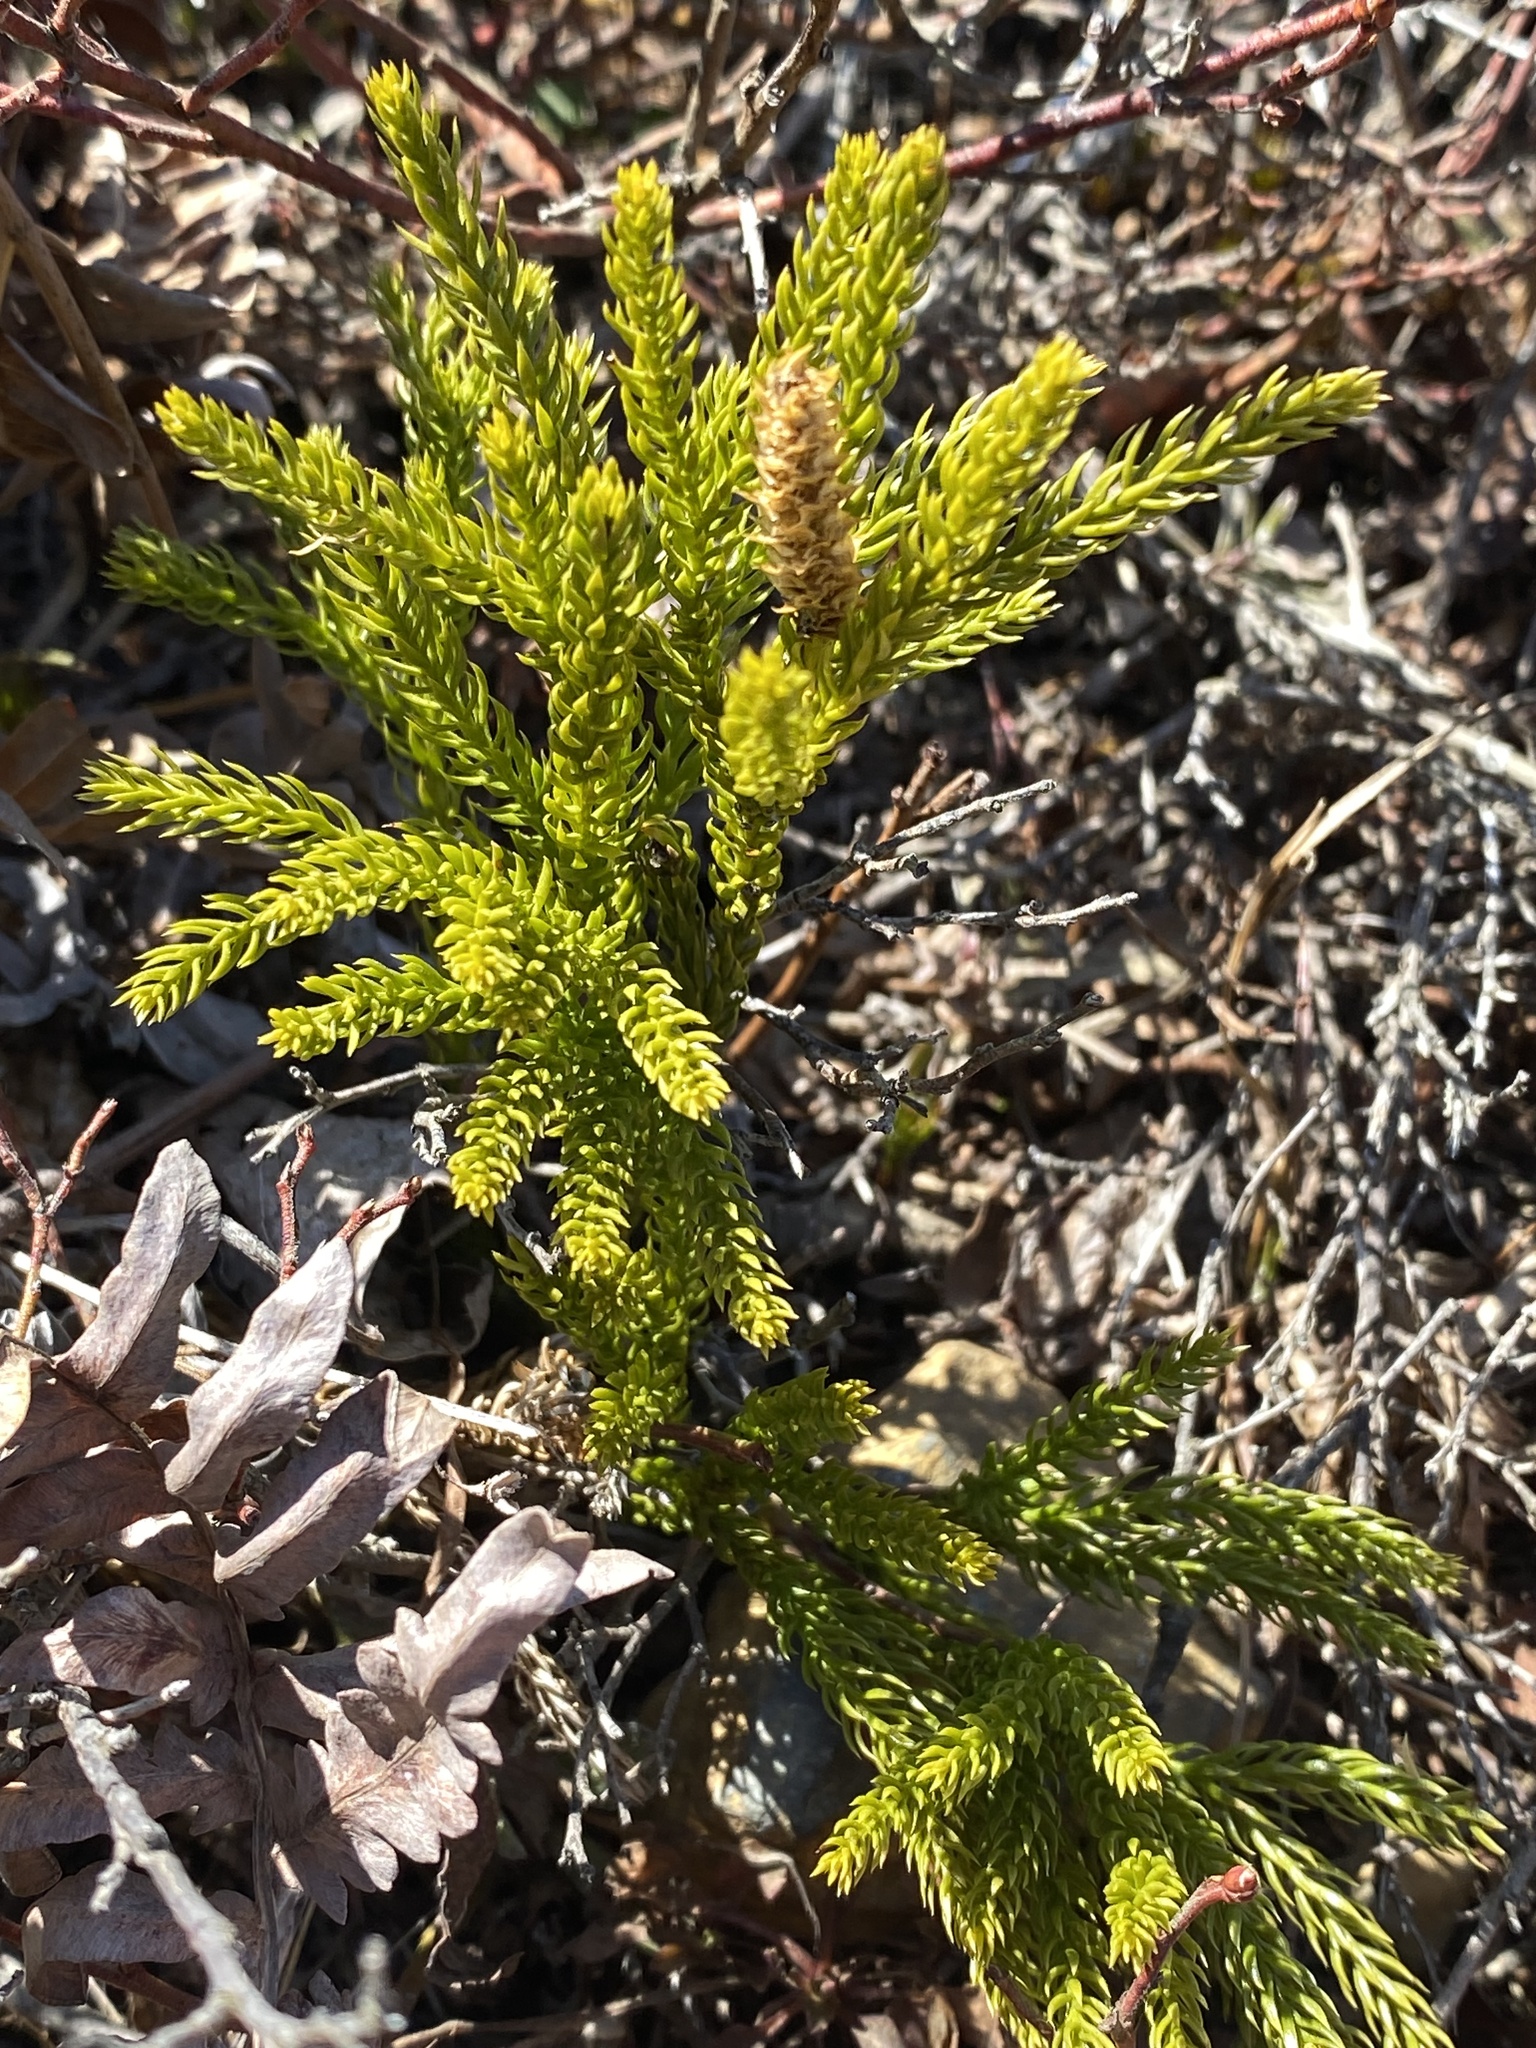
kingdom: Plantae
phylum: Tracheophyta
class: Lycopodiopsida
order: Lycopodiales
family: Lycopodiaceae
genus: Dendrolycopodium
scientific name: Dendrolycopodium hickeyi
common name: Hickey's clubmoss
